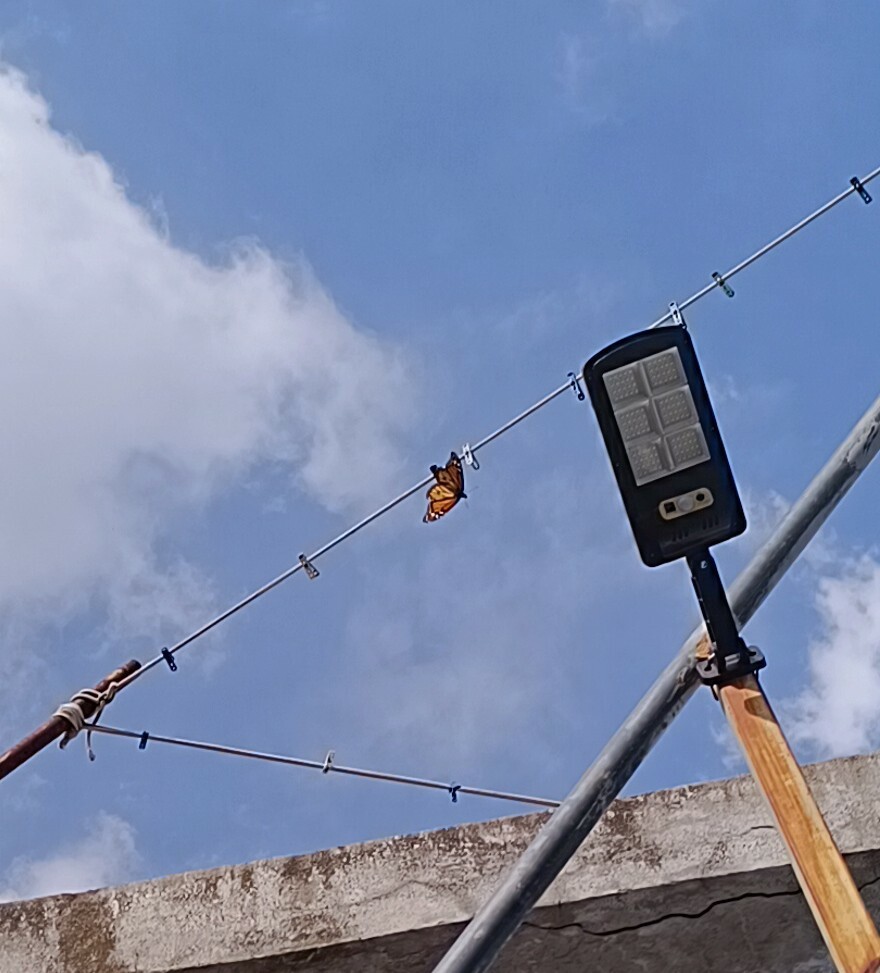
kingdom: Animalia
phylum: Arthropoda
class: Insecta
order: Lepidoptera
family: Nymphalidae
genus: Danaus
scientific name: Danaus plexippus
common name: Monarch
